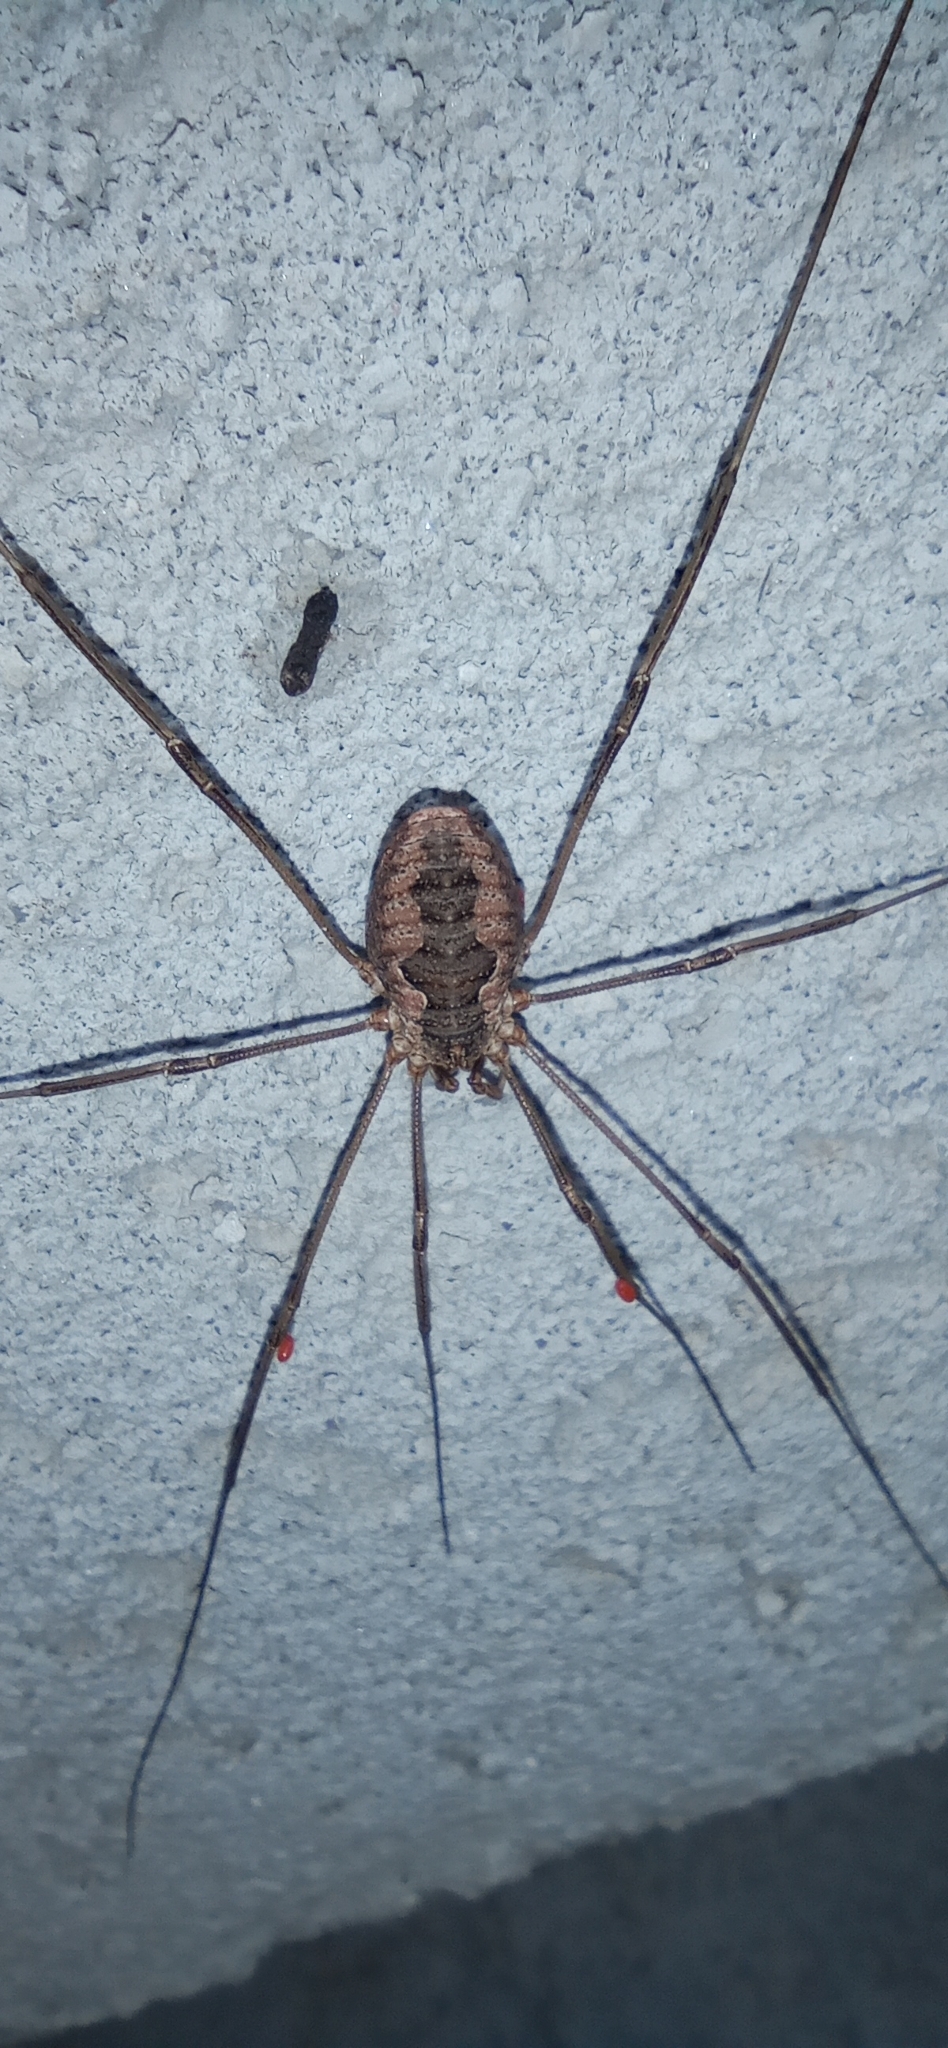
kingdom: Animalia
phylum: Arthropoda
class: Arachnida
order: Opiliones
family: Phalangiidae
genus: Phalangium
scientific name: Phalangium opilio
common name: Daddy longleg
